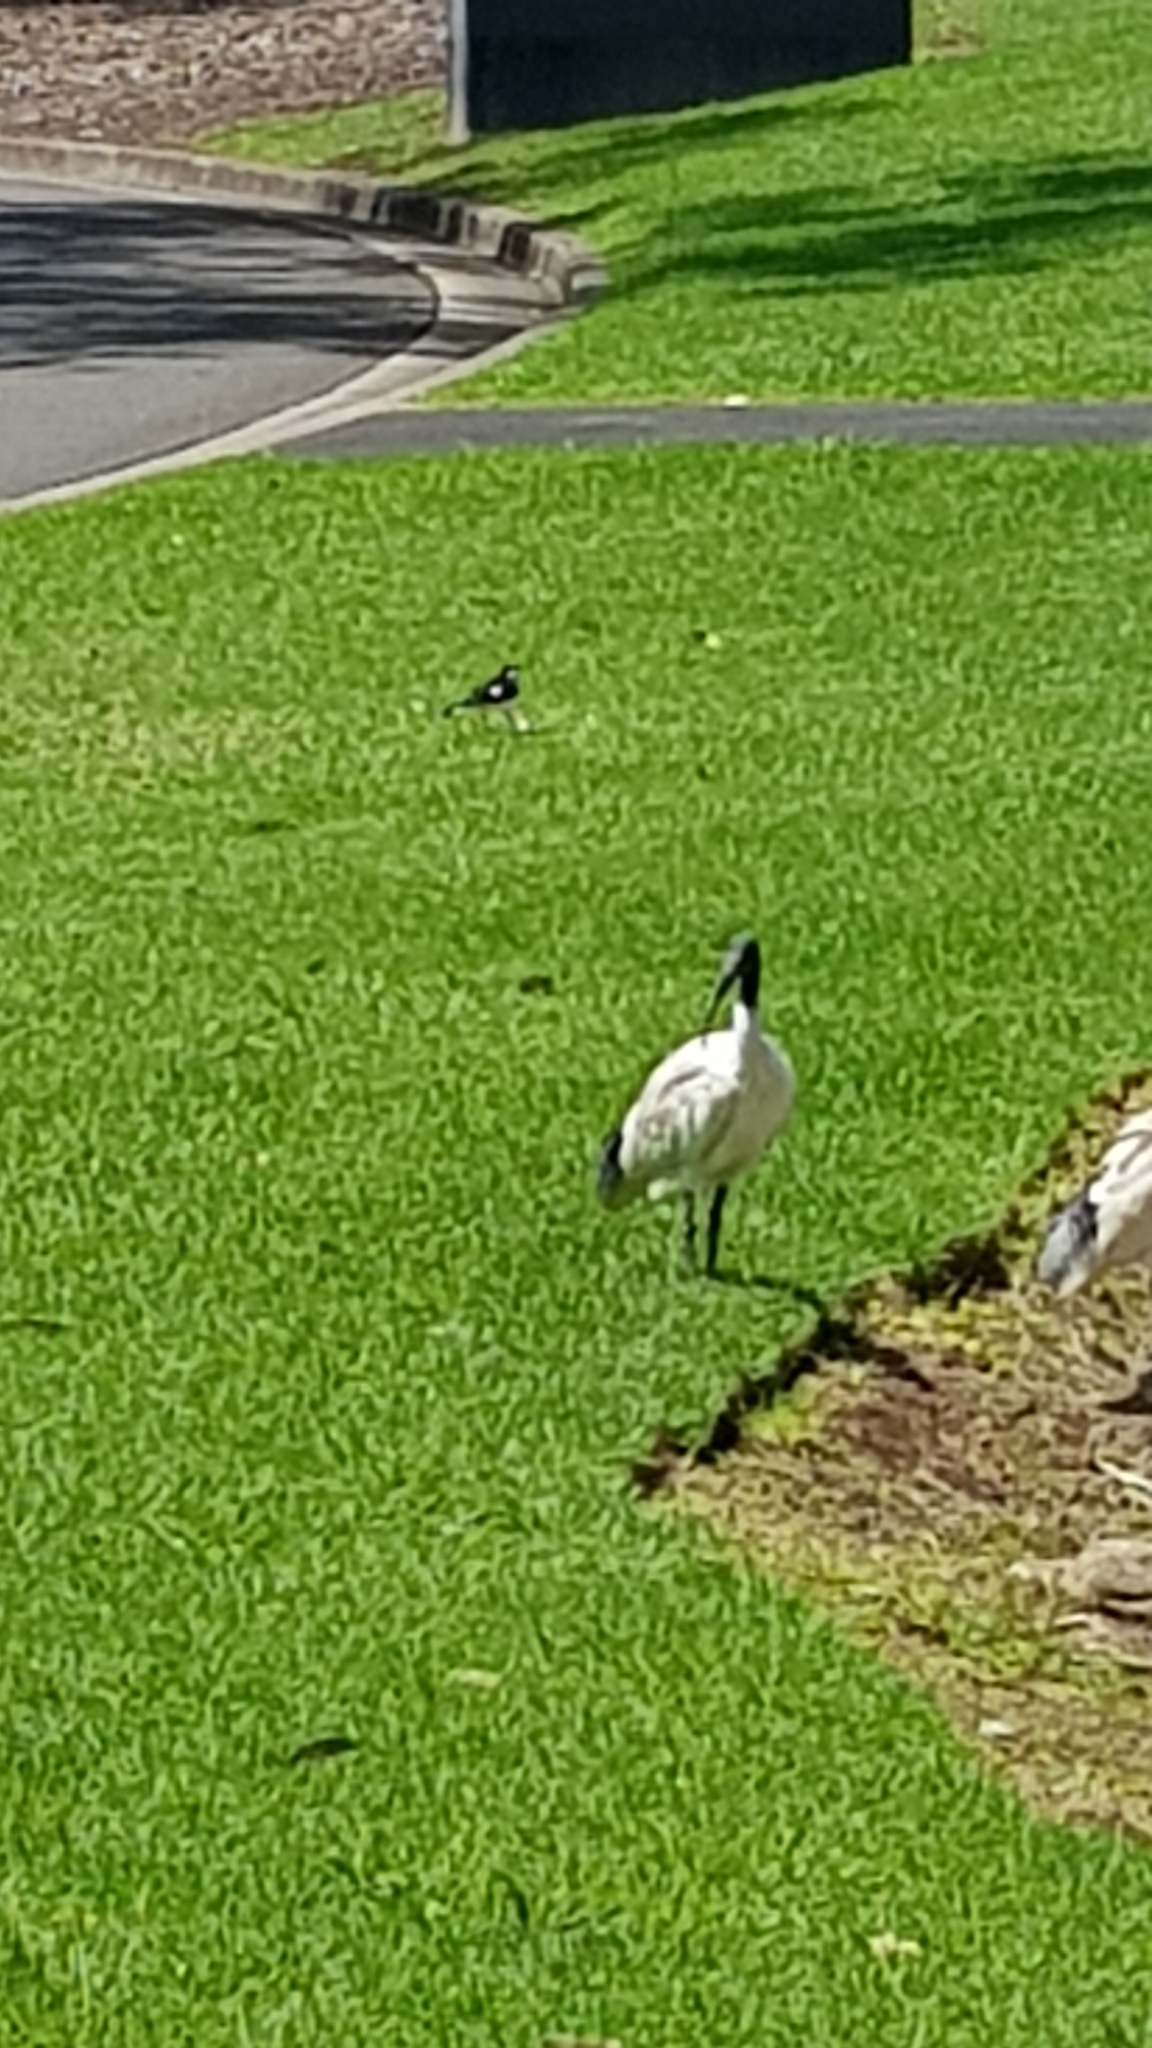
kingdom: Animalia
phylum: Chordata
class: Aves
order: Pelecaniformes
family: Threskiornithidae
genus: Threskiornis
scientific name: Threskiornis molucca
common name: Australian white ibis
